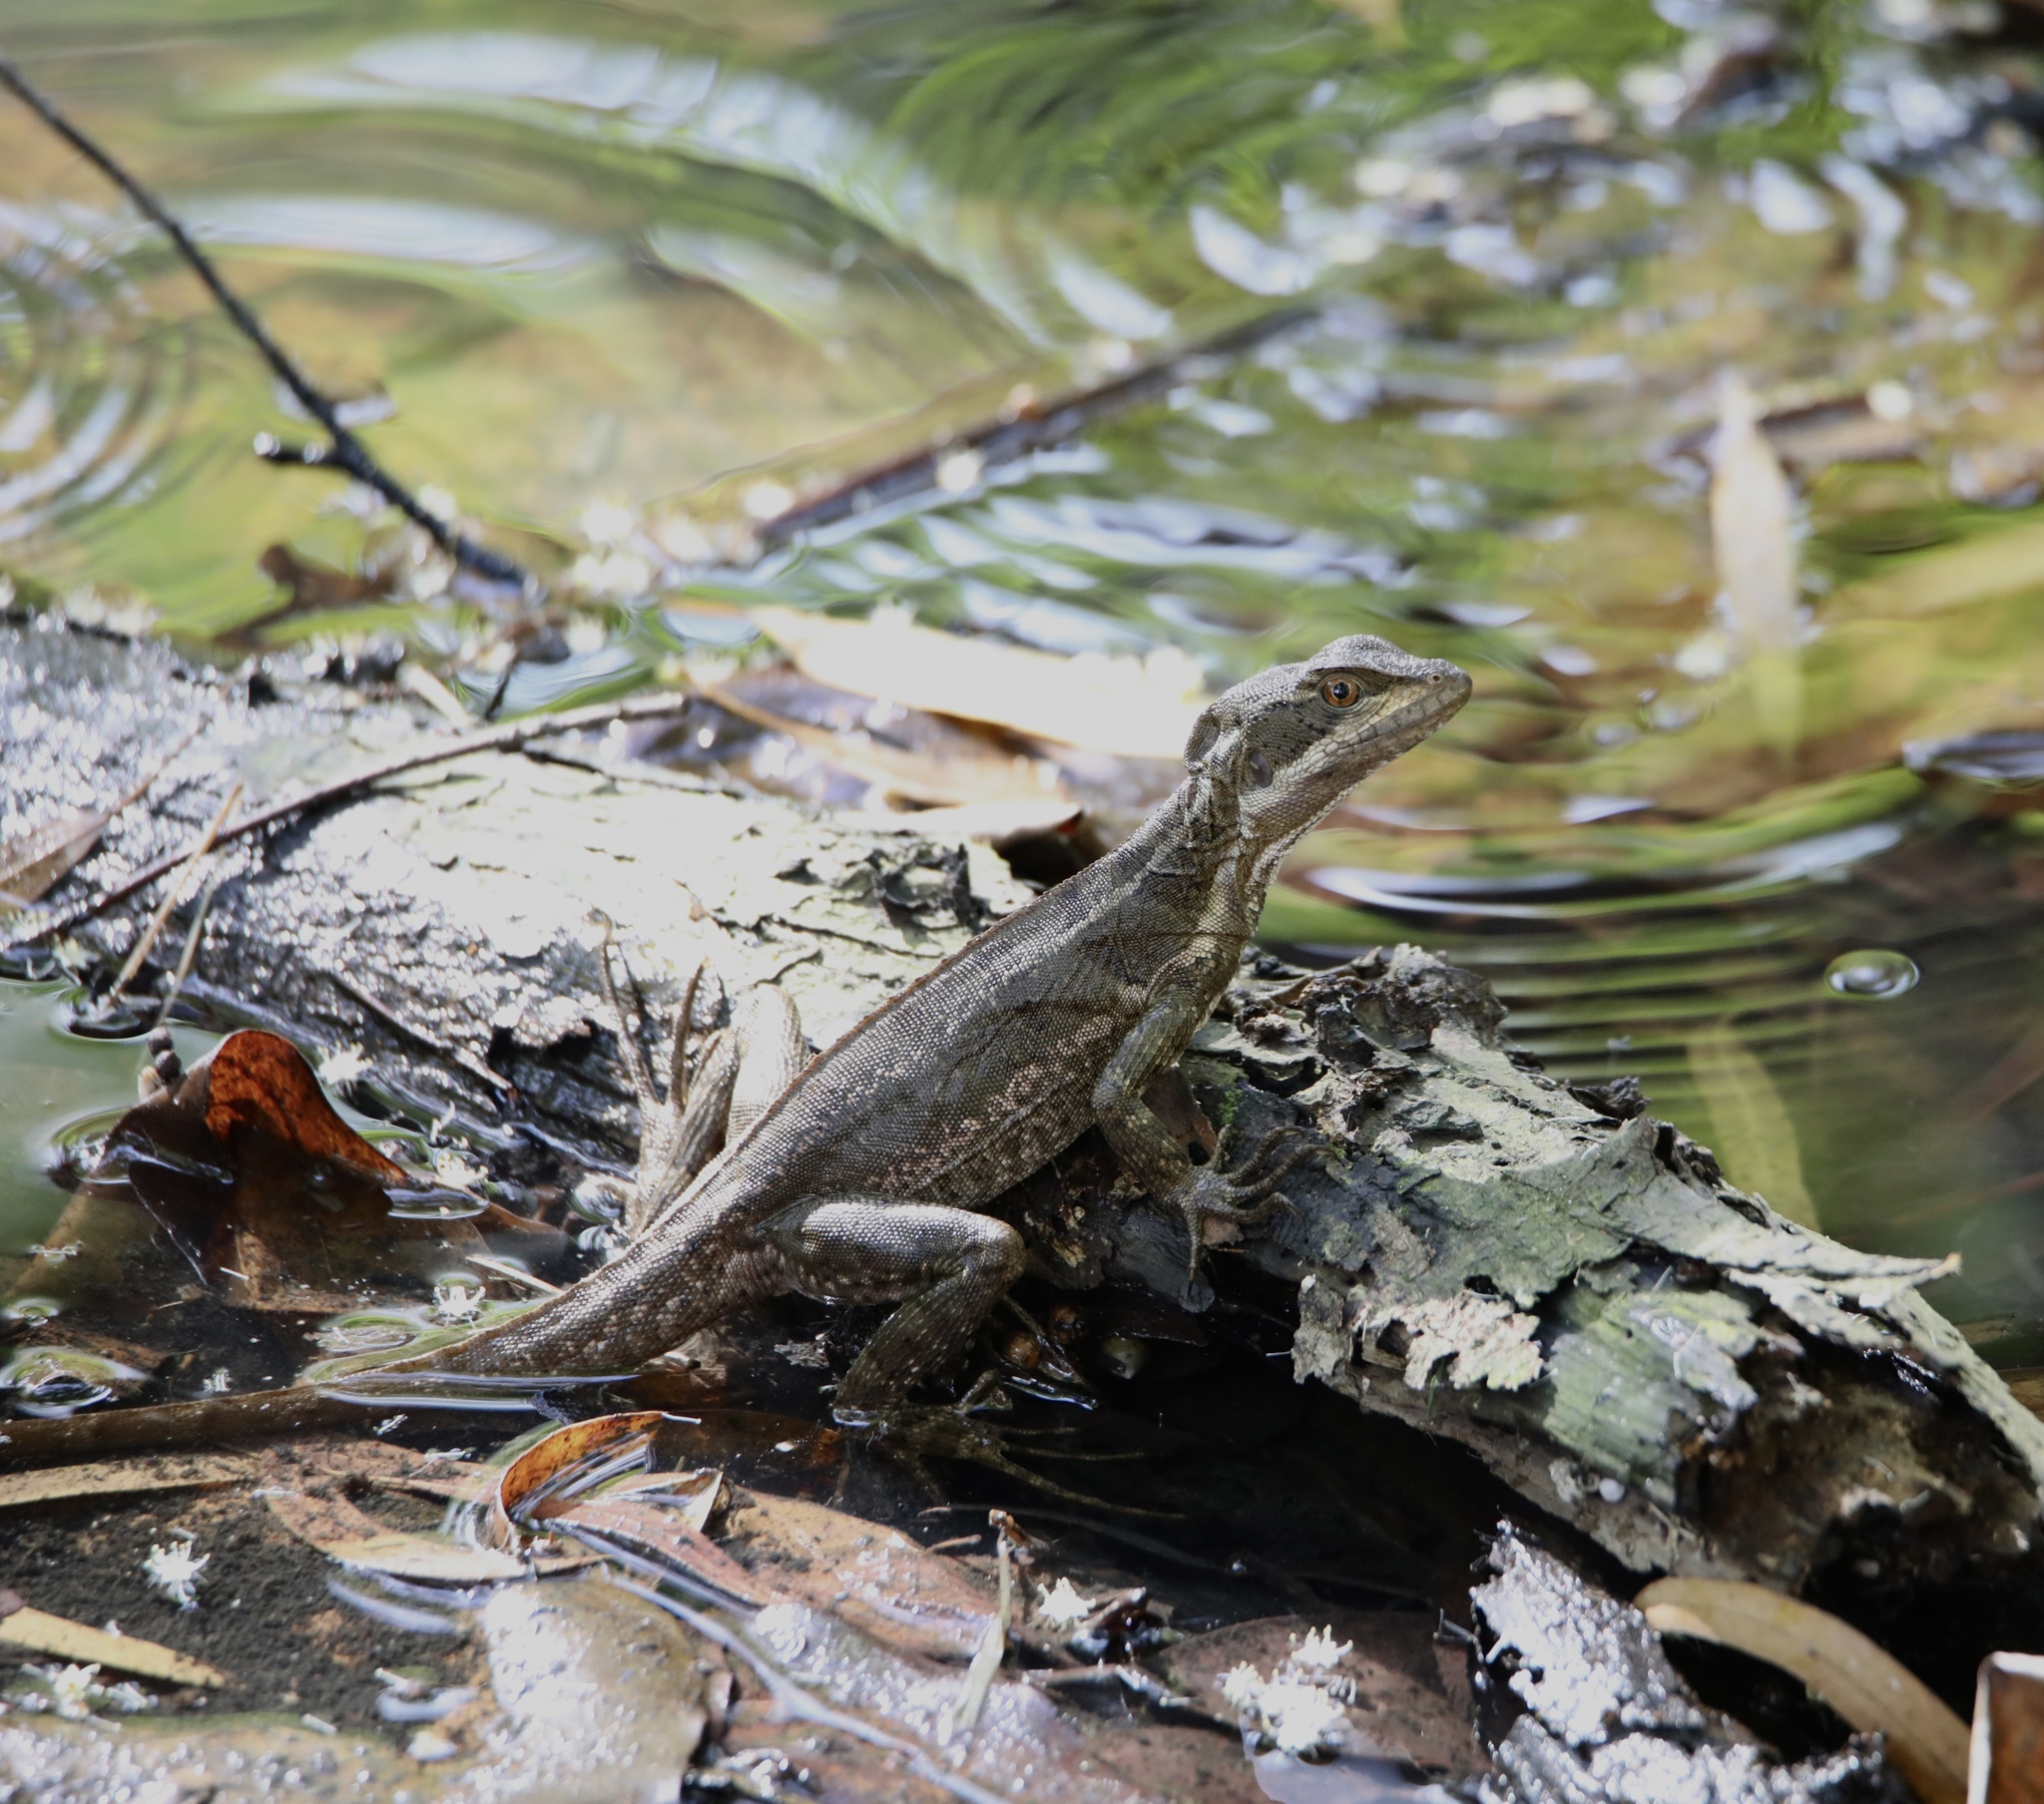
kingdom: Animalia
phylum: Chordata
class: Squamata
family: Corytophanidae
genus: Basiliscus
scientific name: Basiliscus basiliscus
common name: Common basilisk
